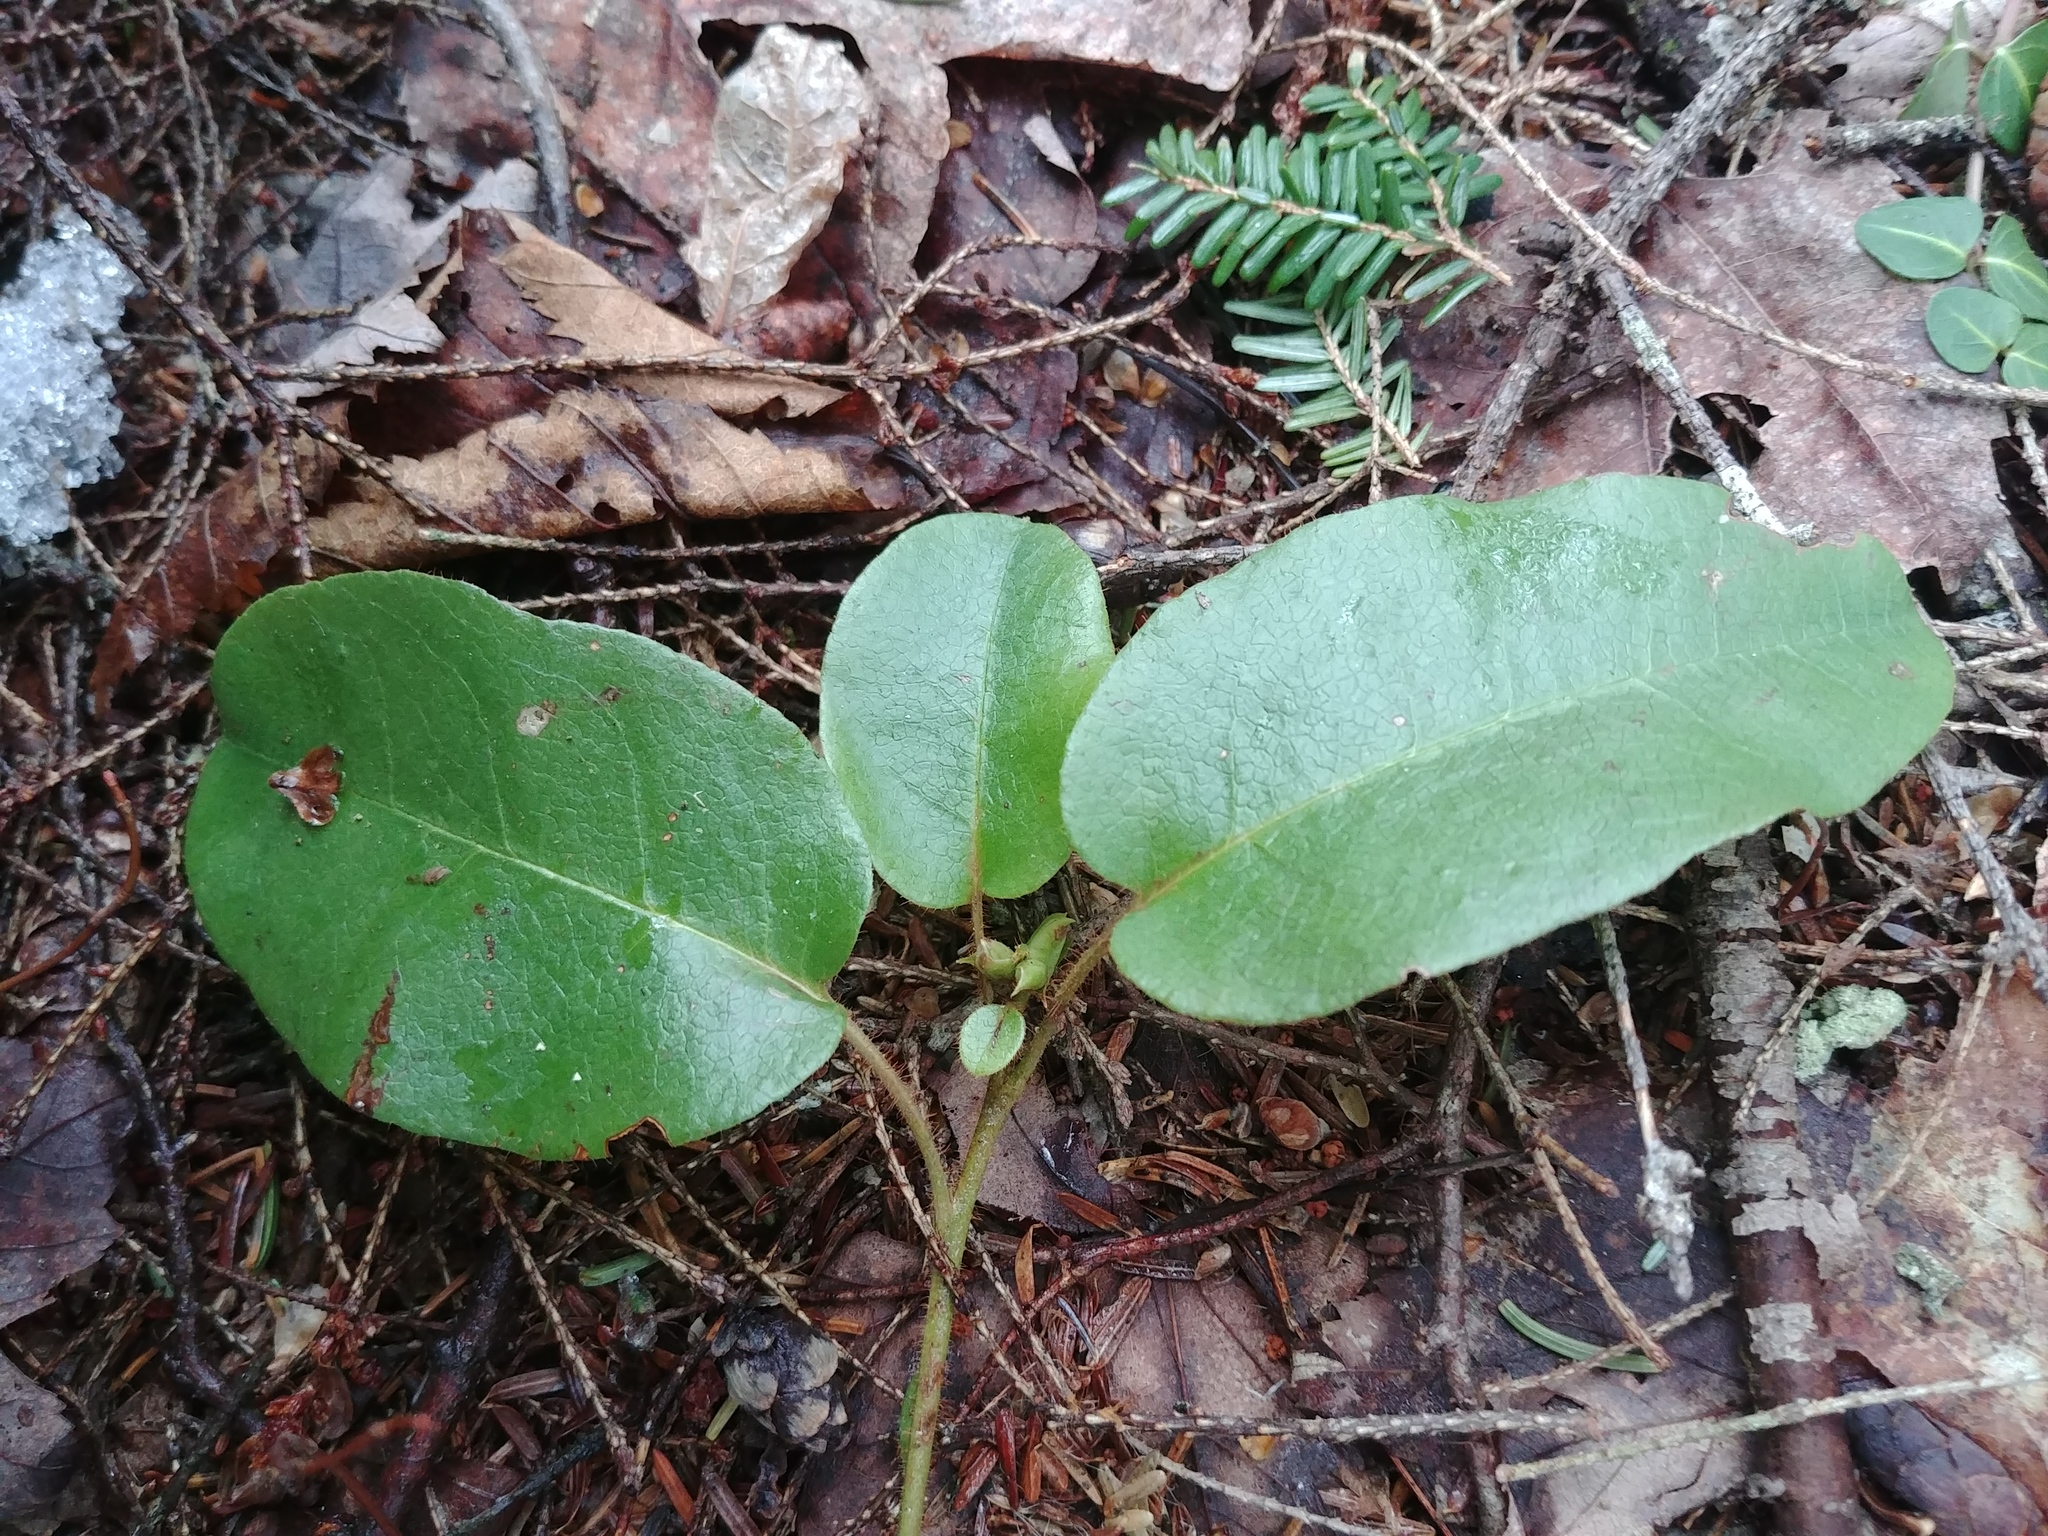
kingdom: Plantae
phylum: Tracheophyta
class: Magnoliopsida
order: Ericales
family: Ericaceae
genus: Epigaea
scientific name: Epigaea repens
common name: Gravelroot
